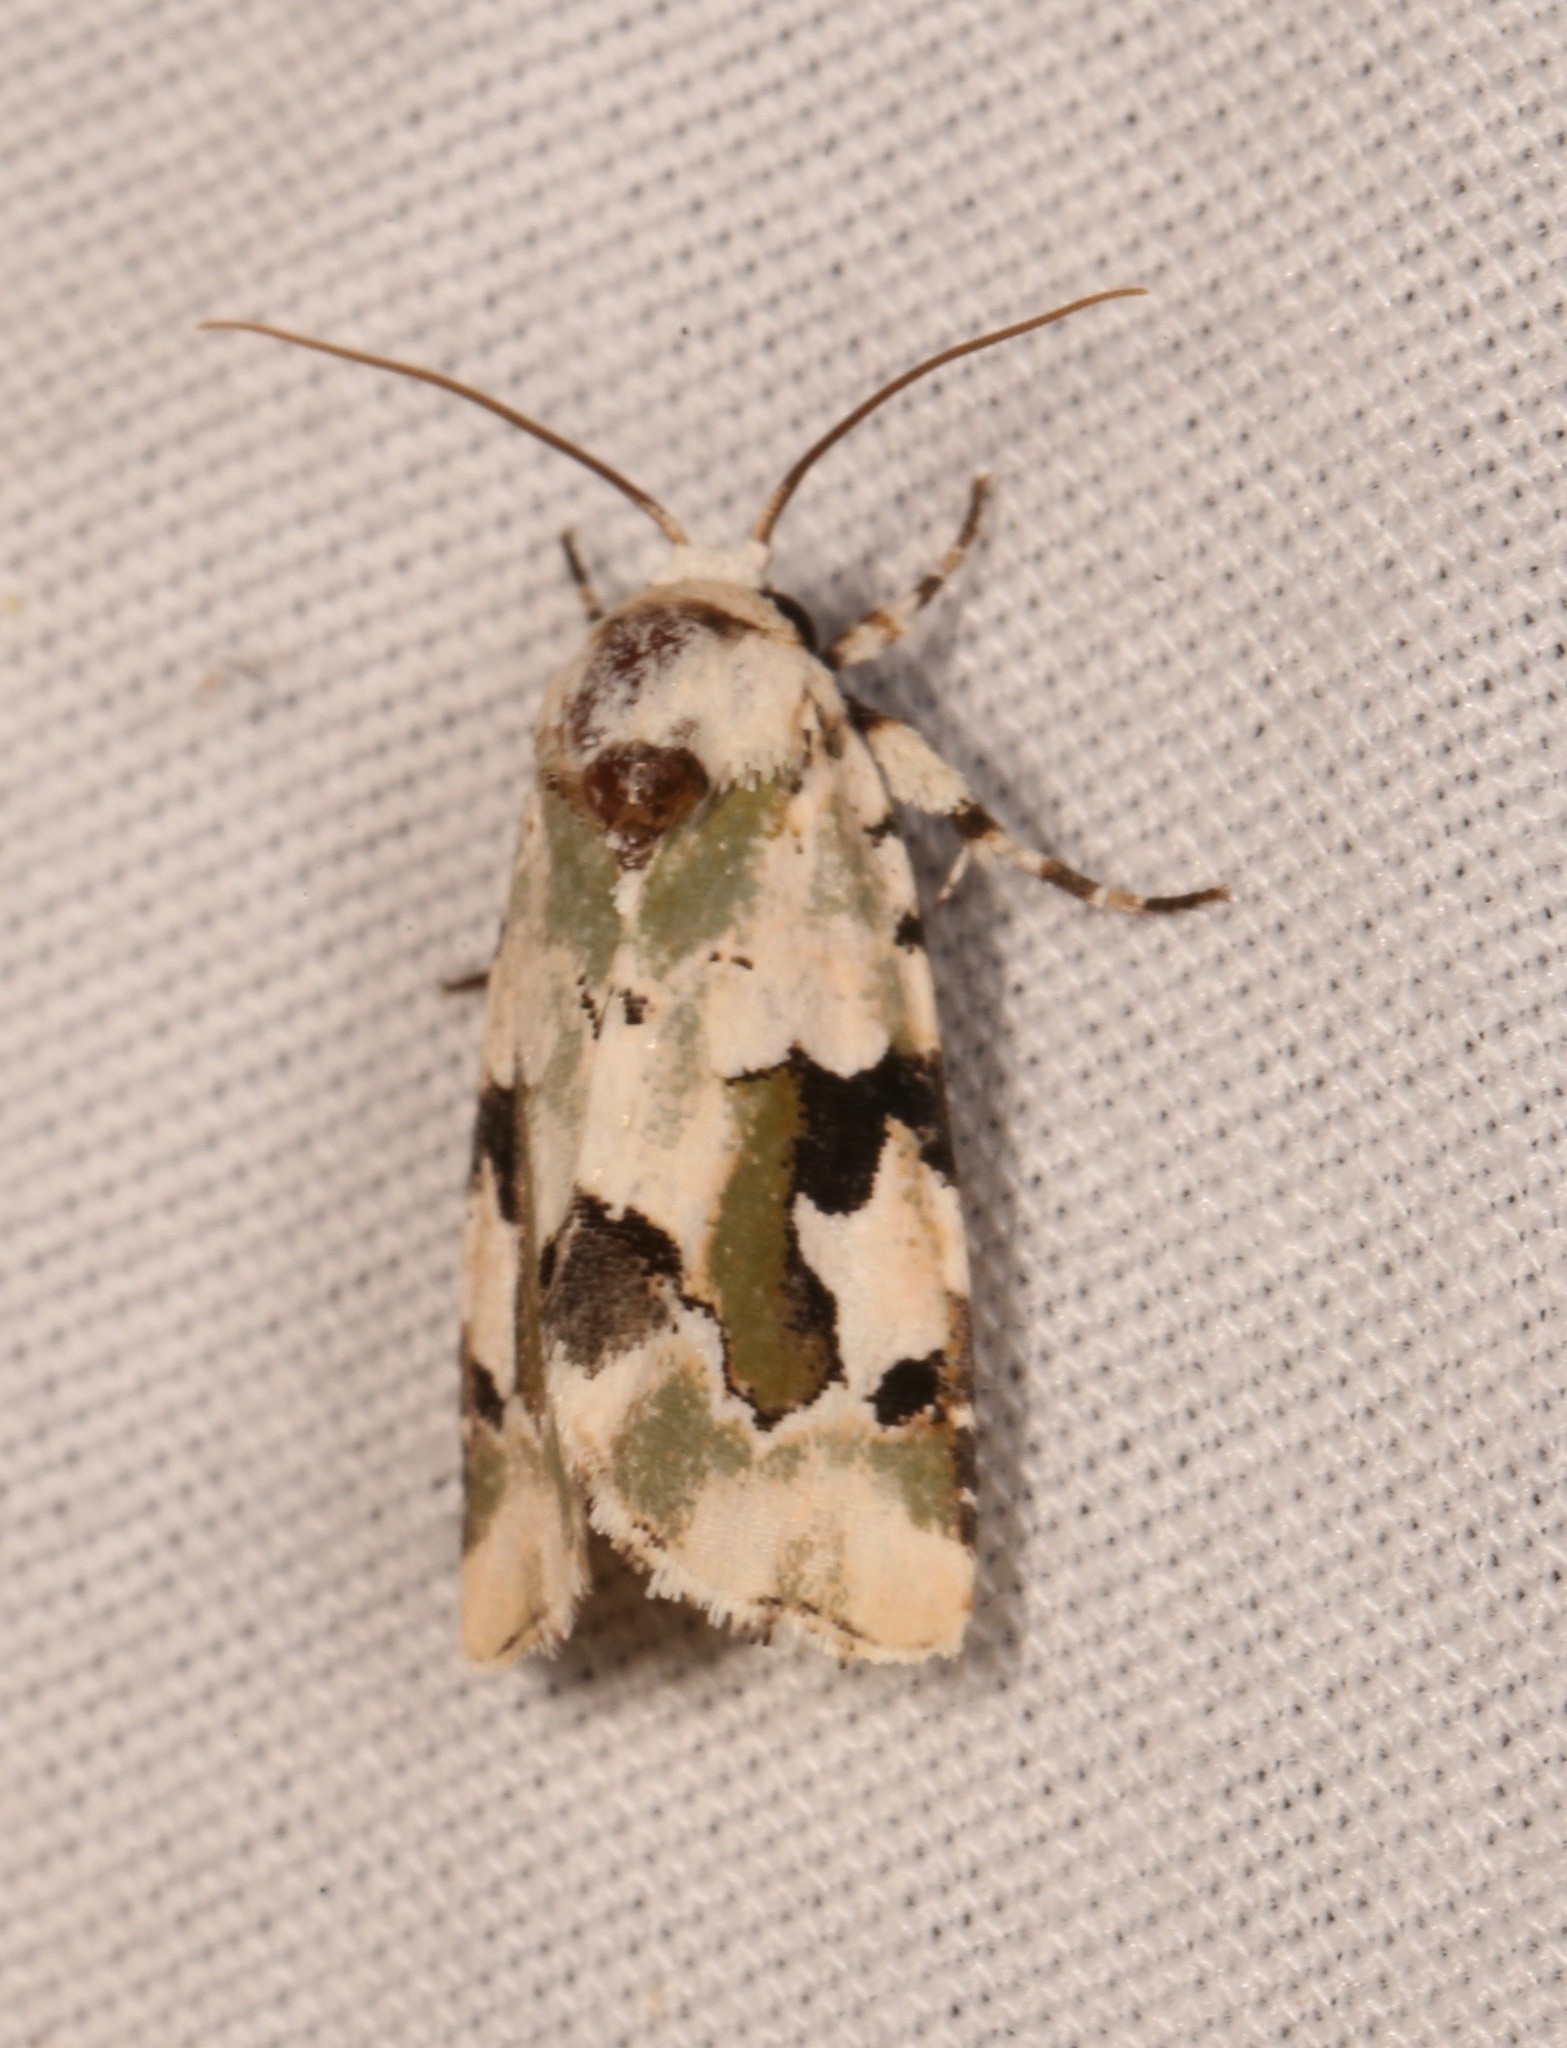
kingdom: Animalia
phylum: Arthropoda
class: Insecta
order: Lepidoptera
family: Noctuidae
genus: Emarginea
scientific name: Emarginea percara
